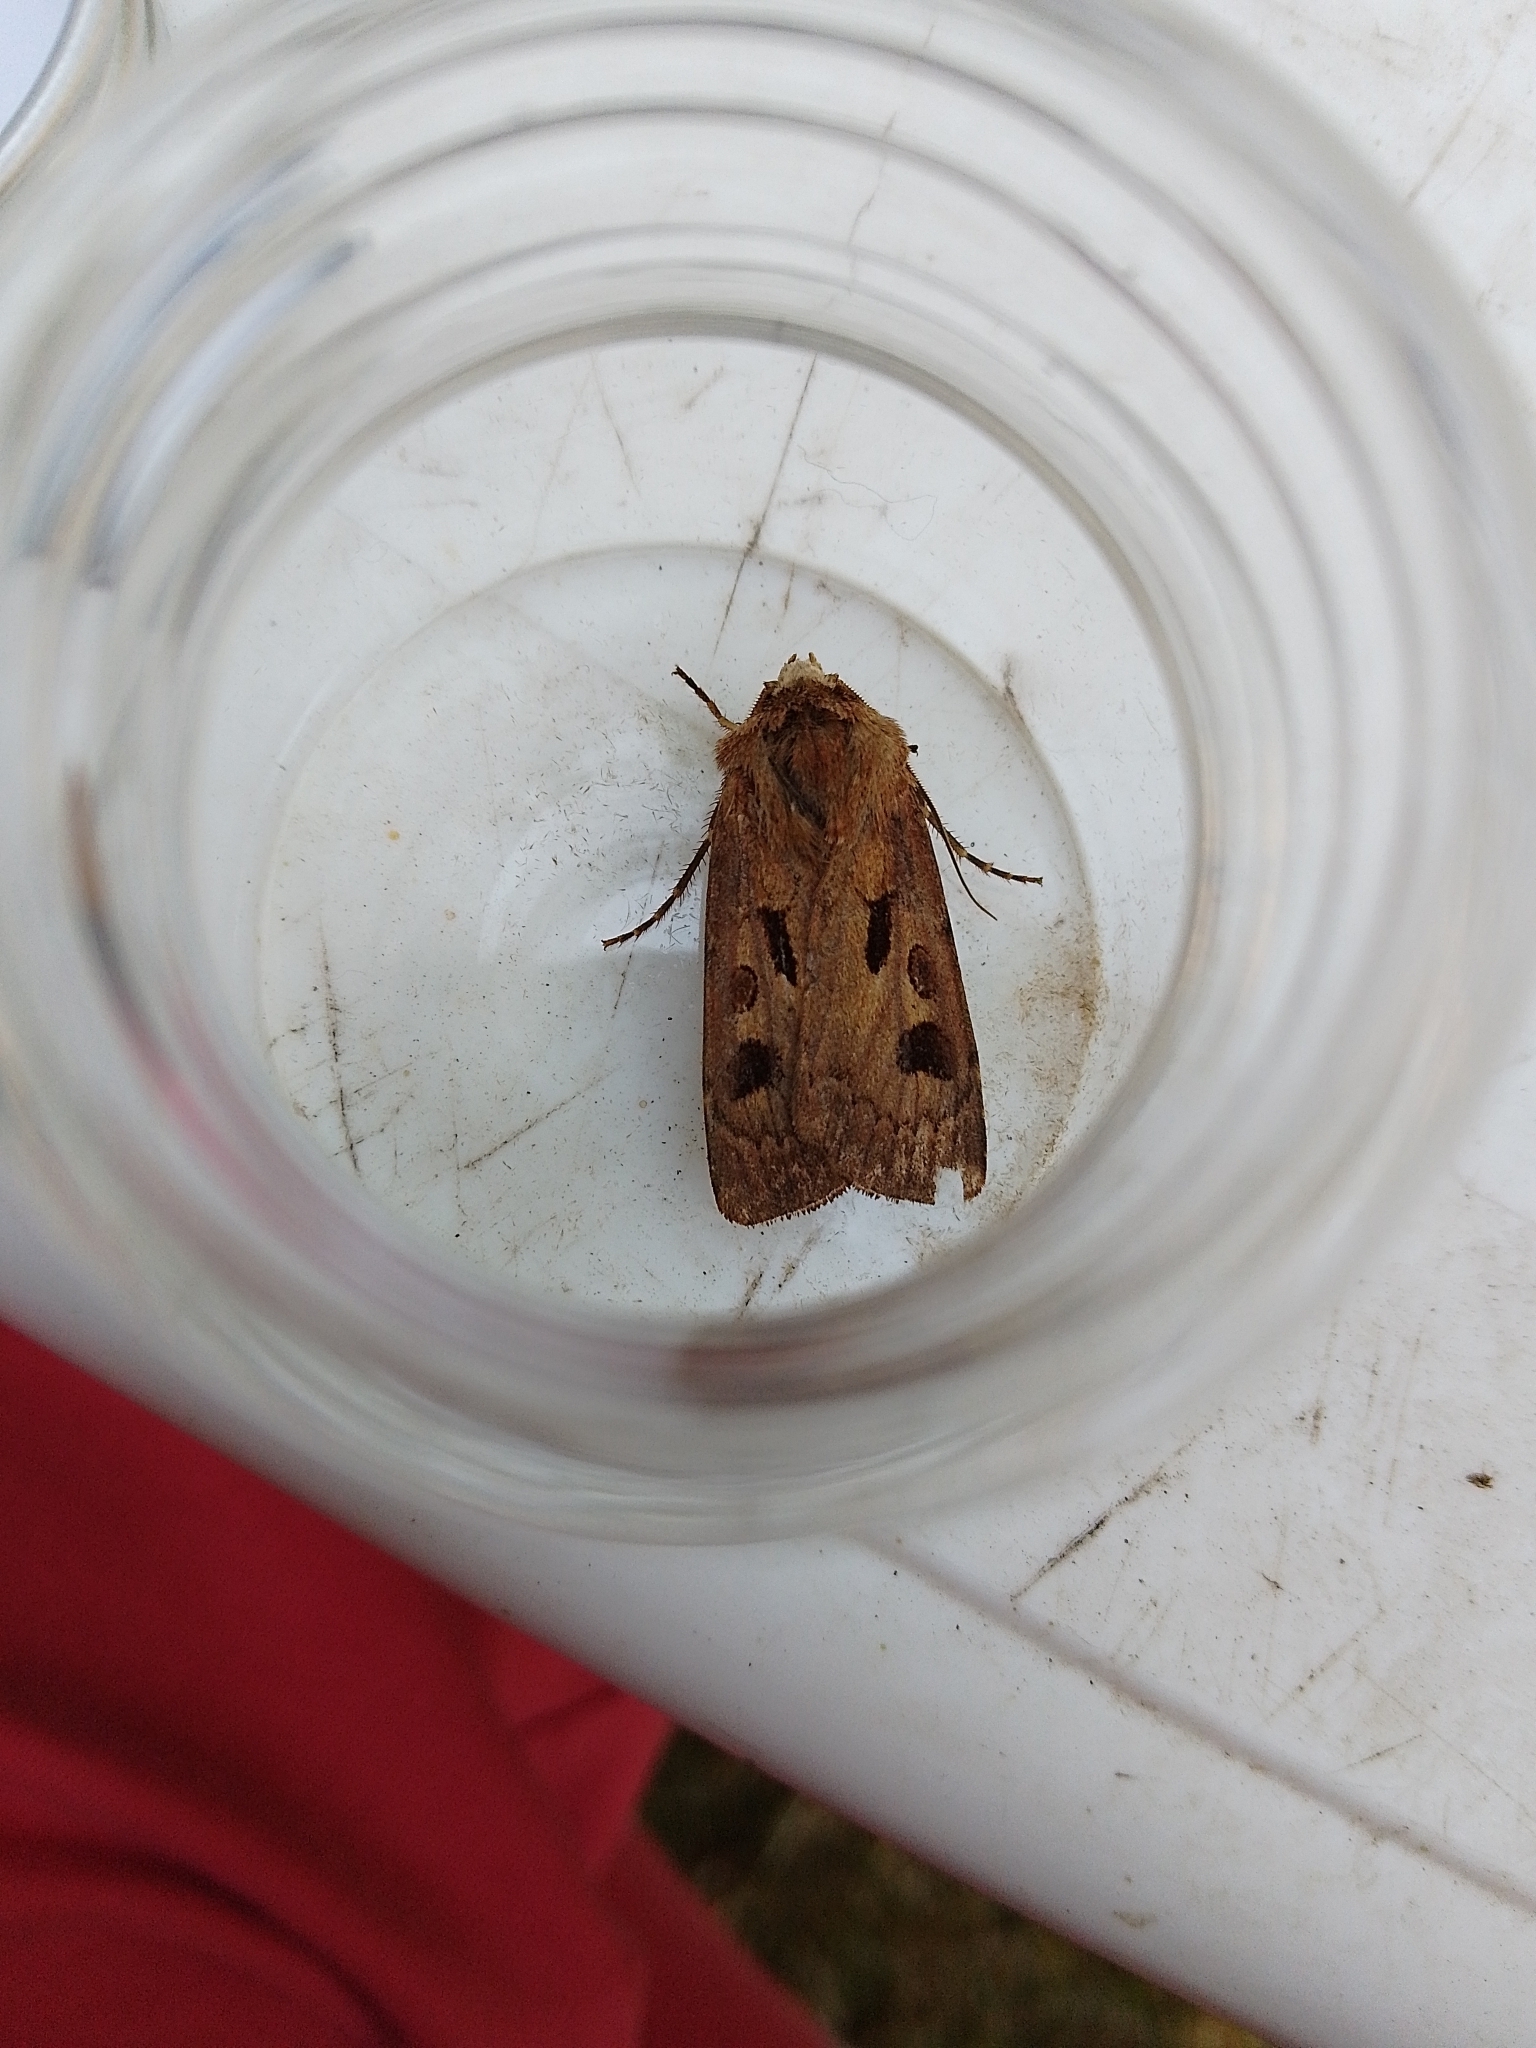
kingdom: Animalia
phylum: Arthropoda
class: Insecta
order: Lepidoptera
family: Noctuidae
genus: Agrotis
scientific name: Agrotis exclamationis
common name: Heart and dart
